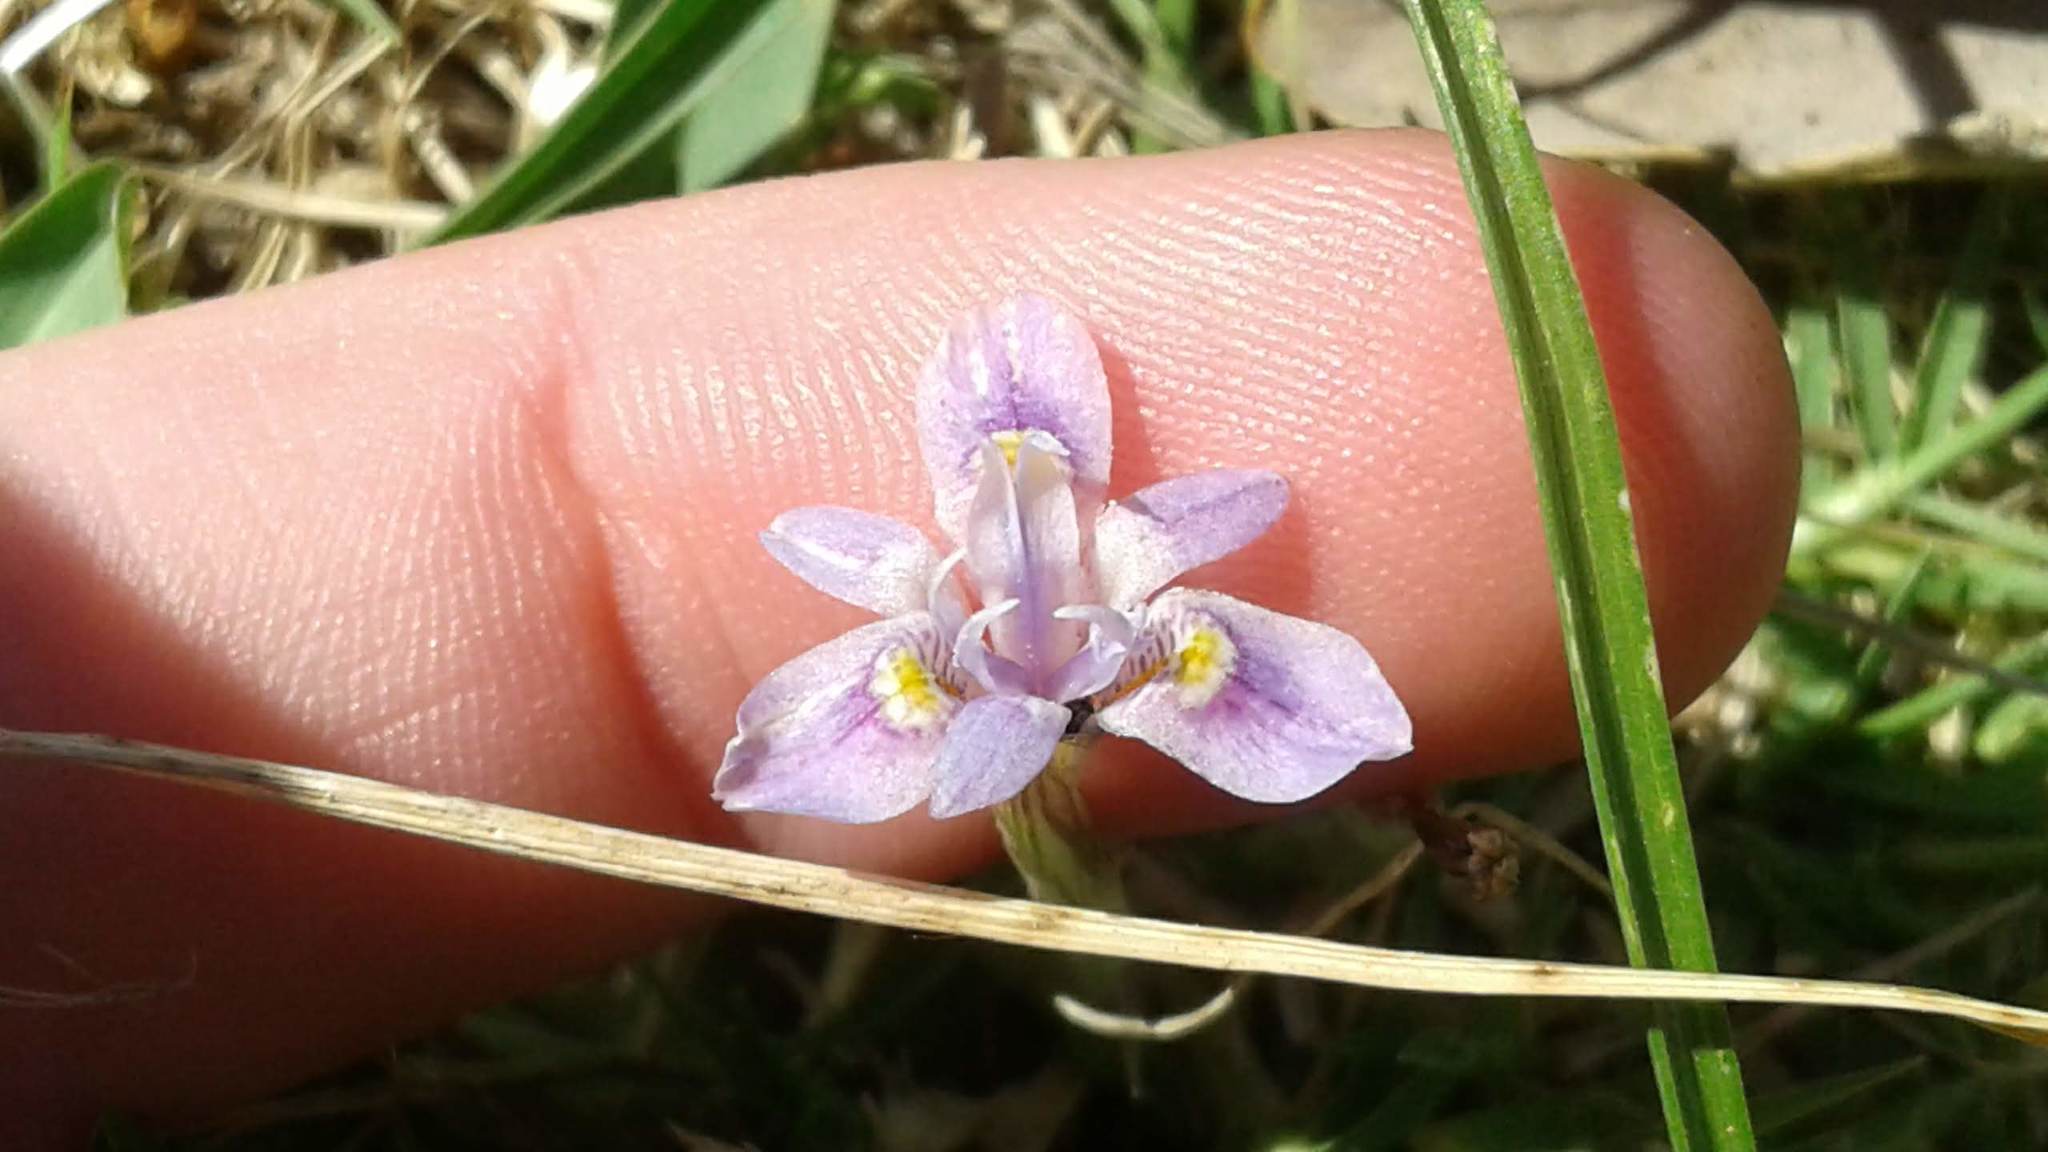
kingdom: Plantae
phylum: Tracheophyta
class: Liliopsida
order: Asparagales
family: Iridaceae
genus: Moraea
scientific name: Moraea setifolia
